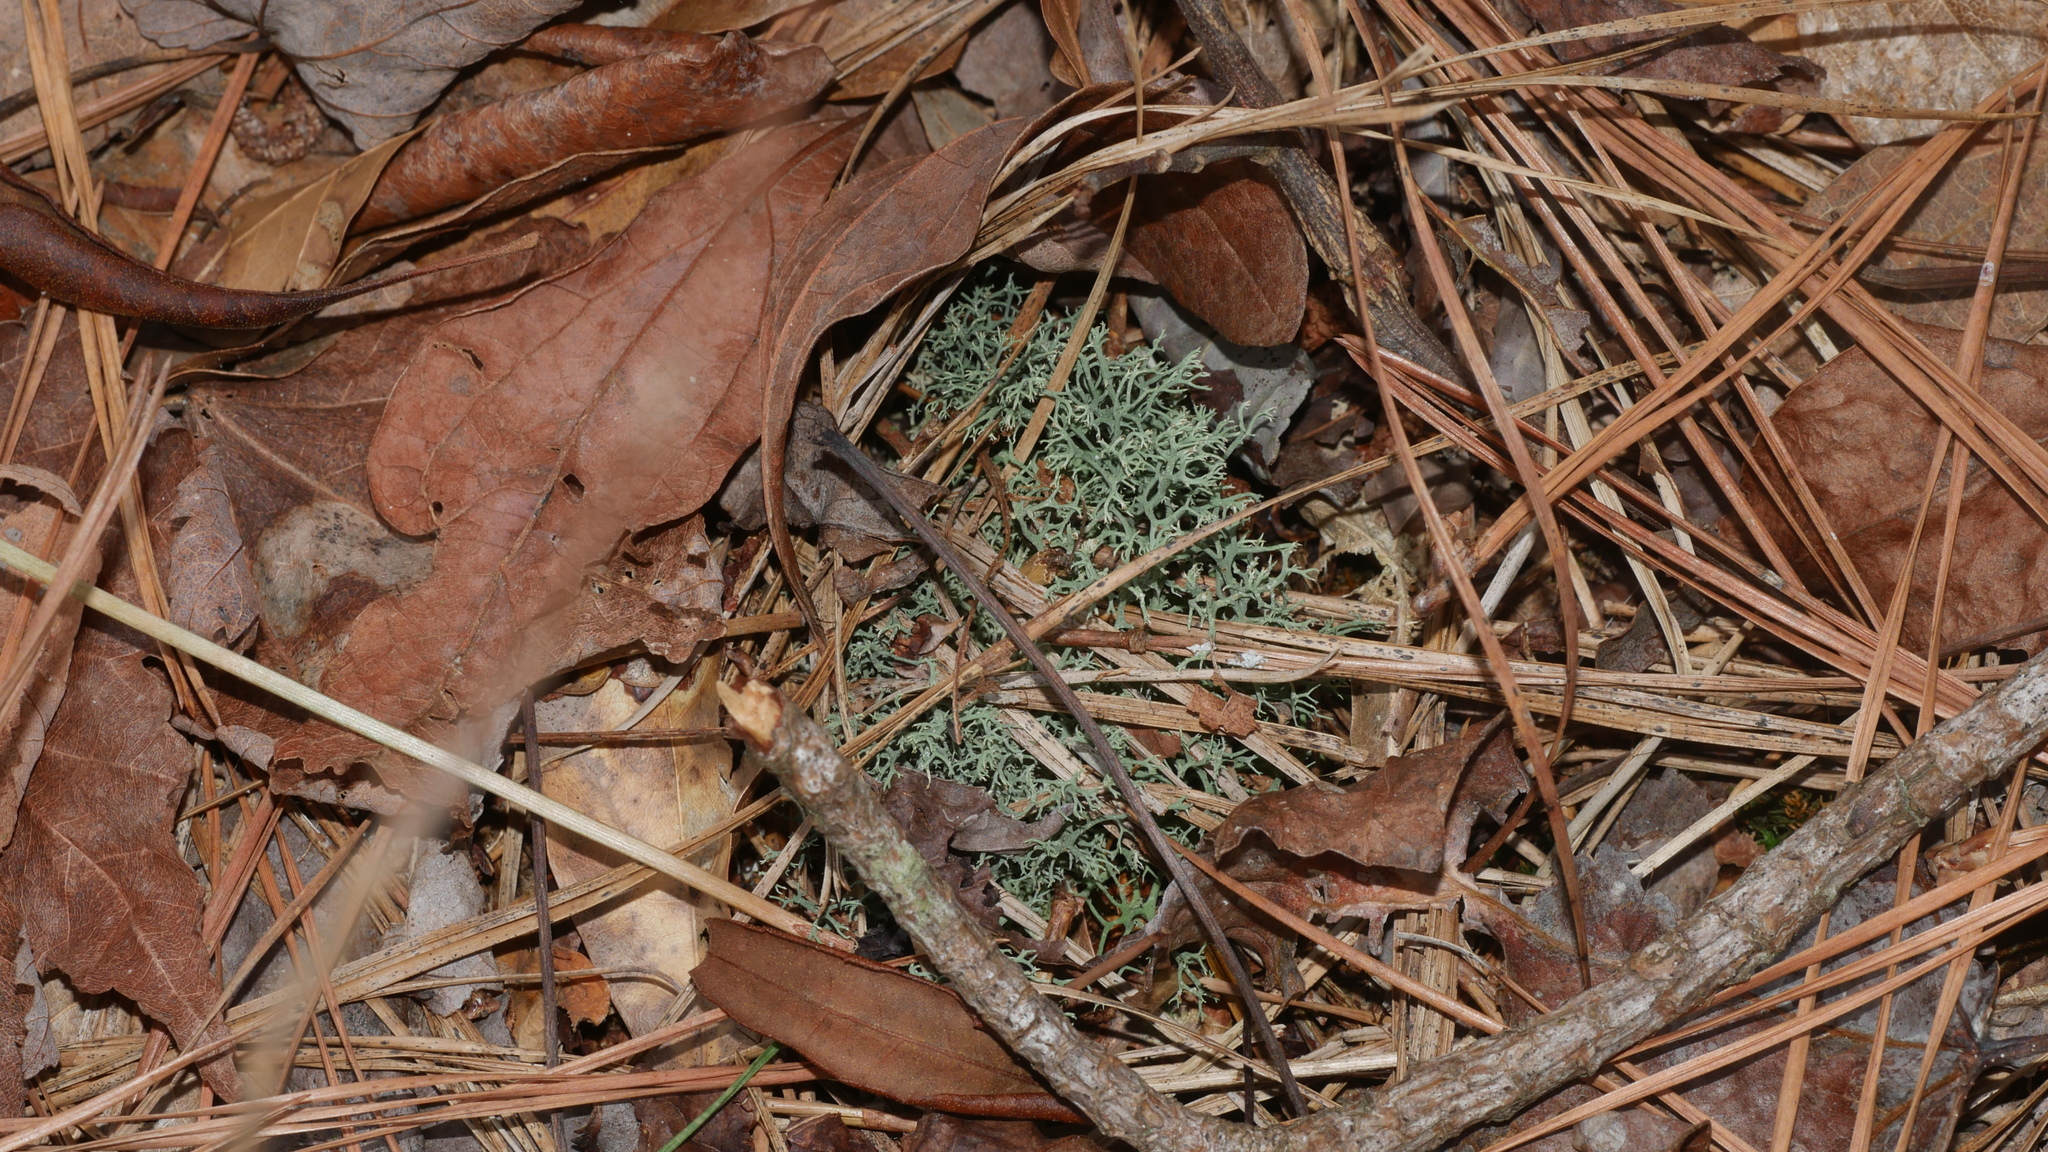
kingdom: Fungi
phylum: Ascomycota
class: Lecanoromycetes
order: Lecanorales
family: Cladoniaceae
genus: Cladonia
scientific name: Cladonia subtenuis
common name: Dixie reindeer lichen
